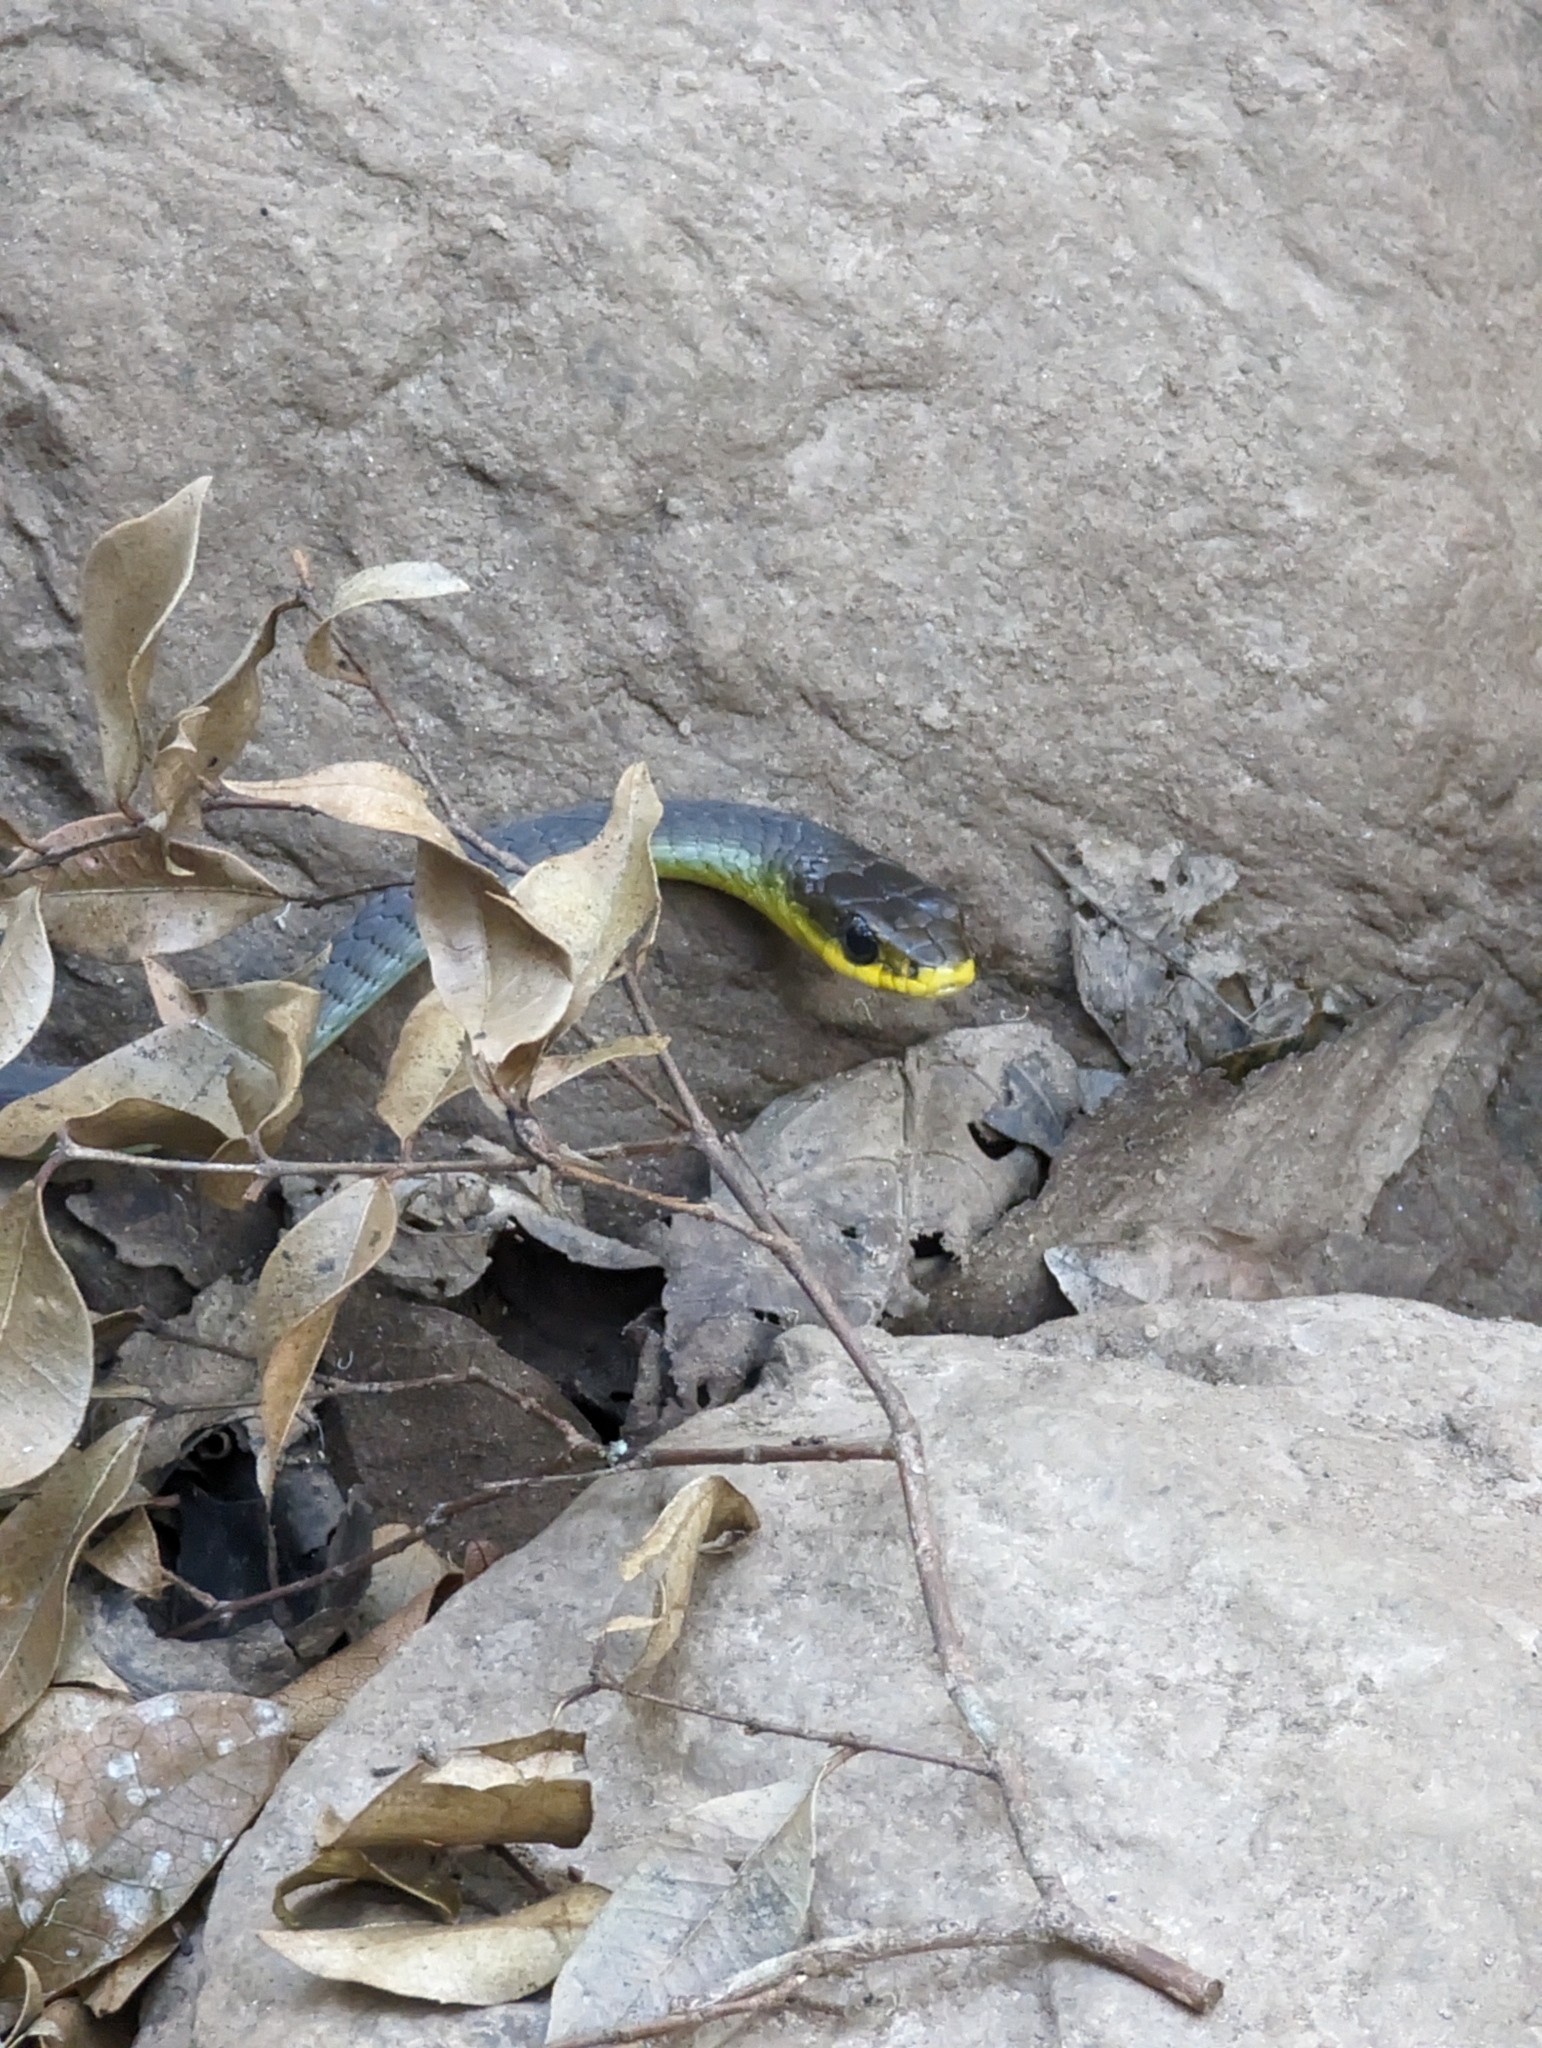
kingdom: Animalia
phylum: Chordata
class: Squamata
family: Colubridae
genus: Dendrelaphis
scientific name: Dendrelaphis punctulatus
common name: Common tree snake
